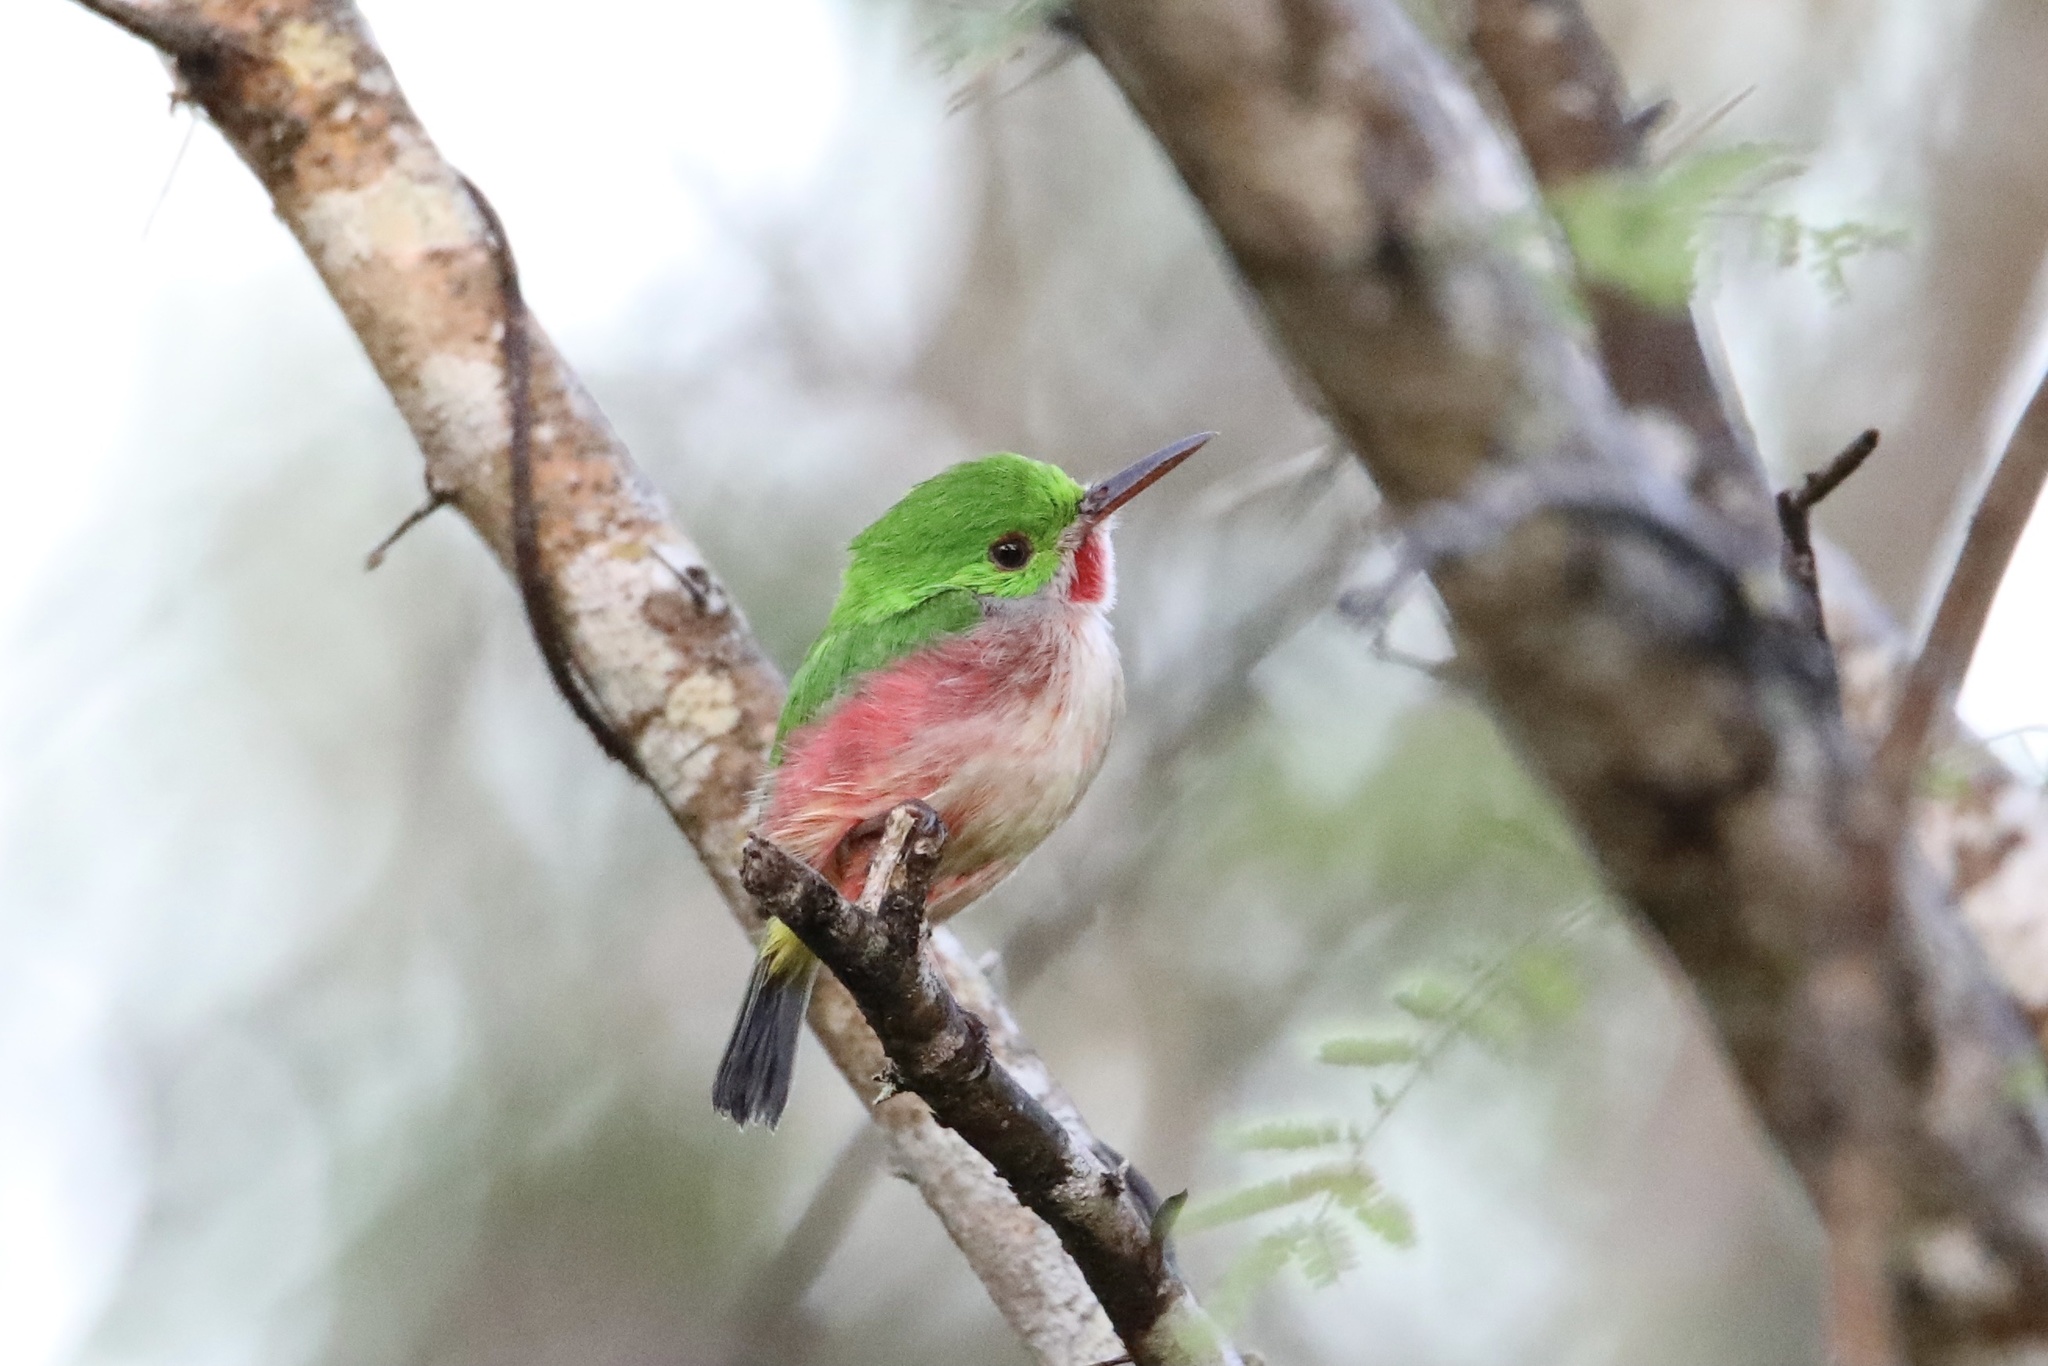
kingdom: Animalia
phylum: Chordata
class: Aves
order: Coraciiformes
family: Todidae
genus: Todus
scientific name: Todus subulatus
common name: Broad-billed tody
